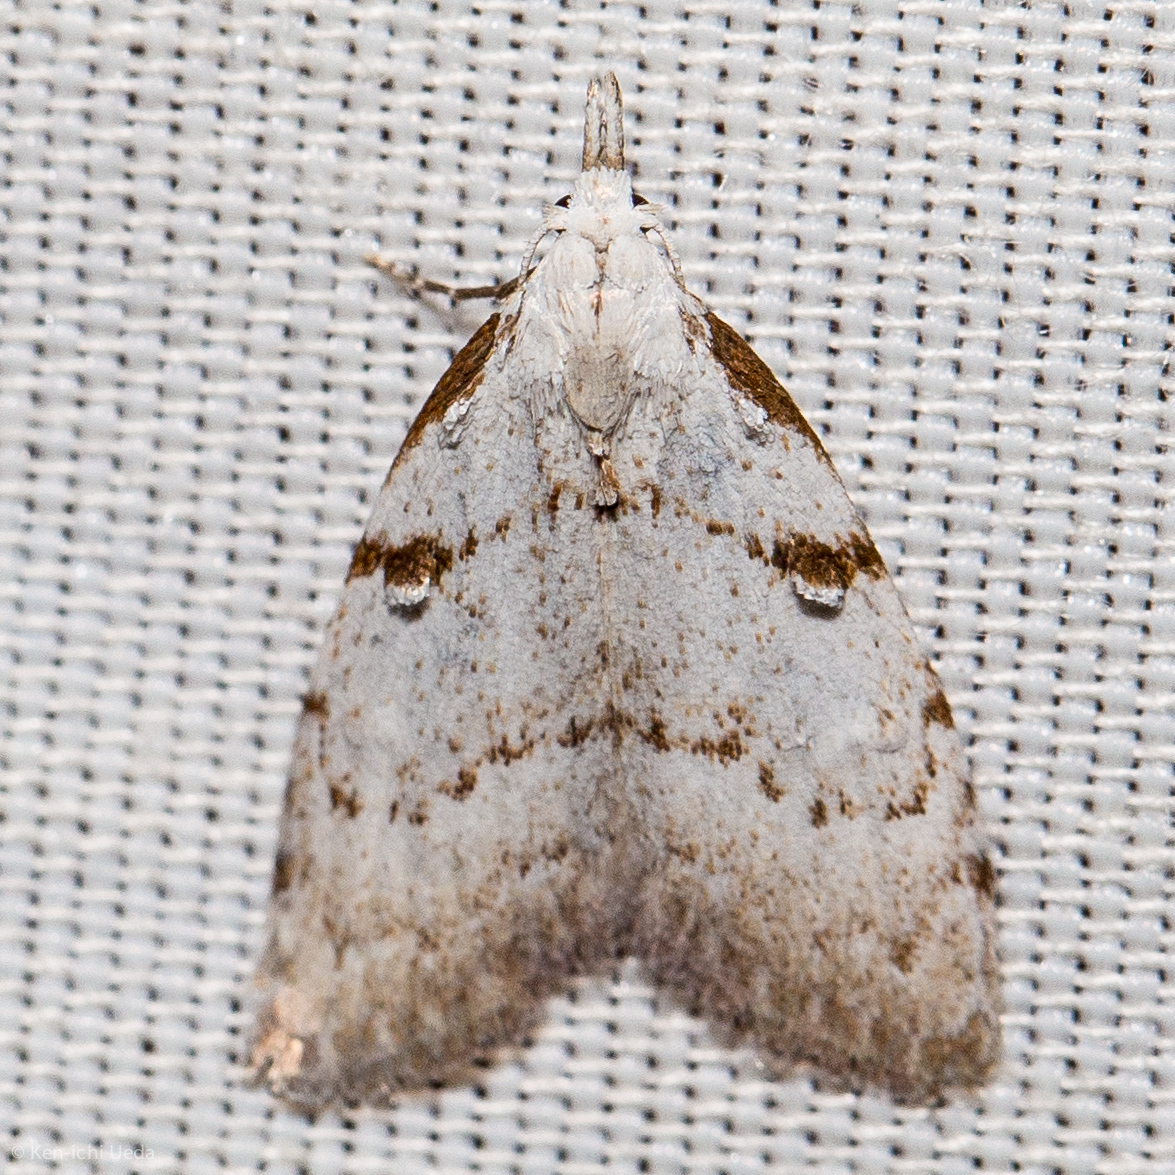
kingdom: Animalia
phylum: Arthropoda
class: Insecta
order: Lepidoptera
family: Nolidae
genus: Nola
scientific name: Nola minna
